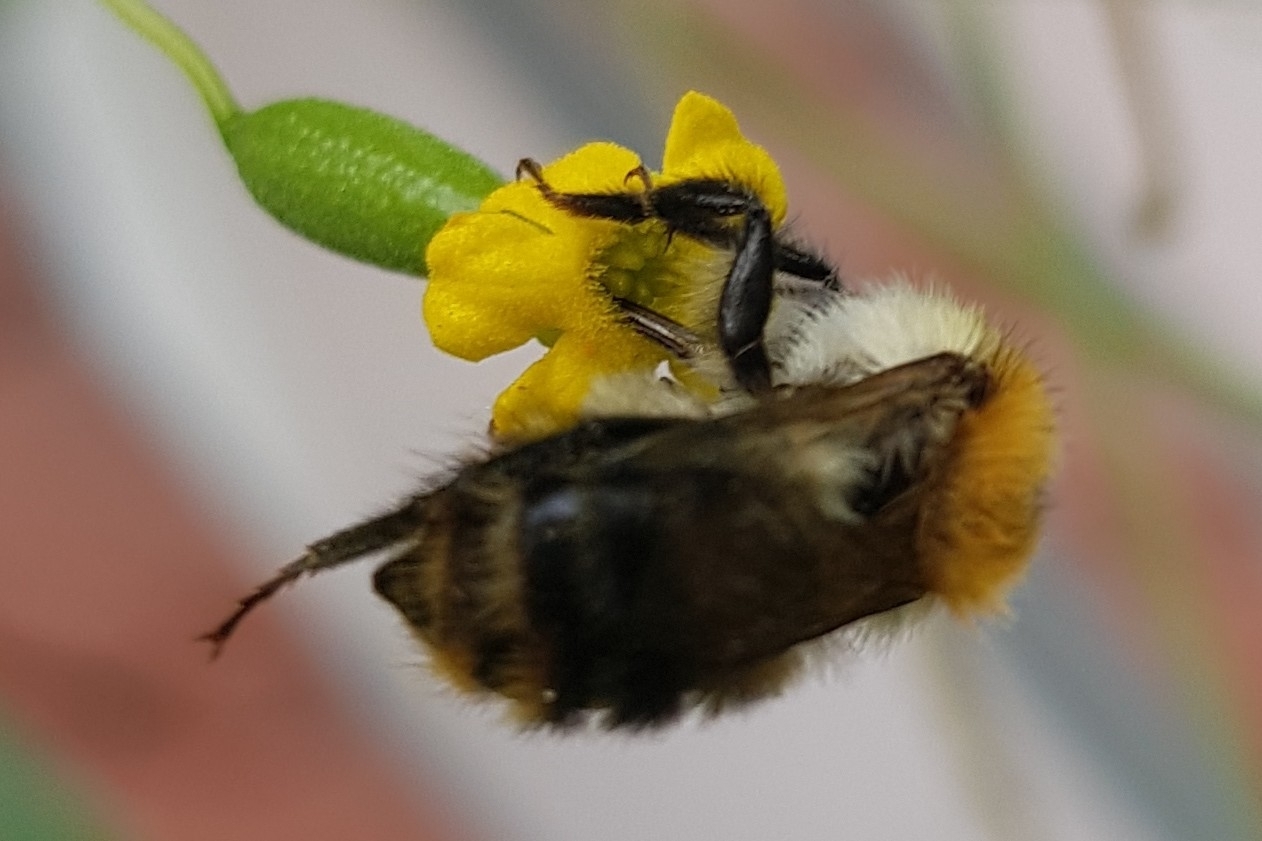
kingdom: Animalia
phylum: Arthropoda
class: Insecta
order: Hymenoptera
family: Apidae
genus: Bombus
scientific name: Bombus pascuorum
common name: Common carder bee
